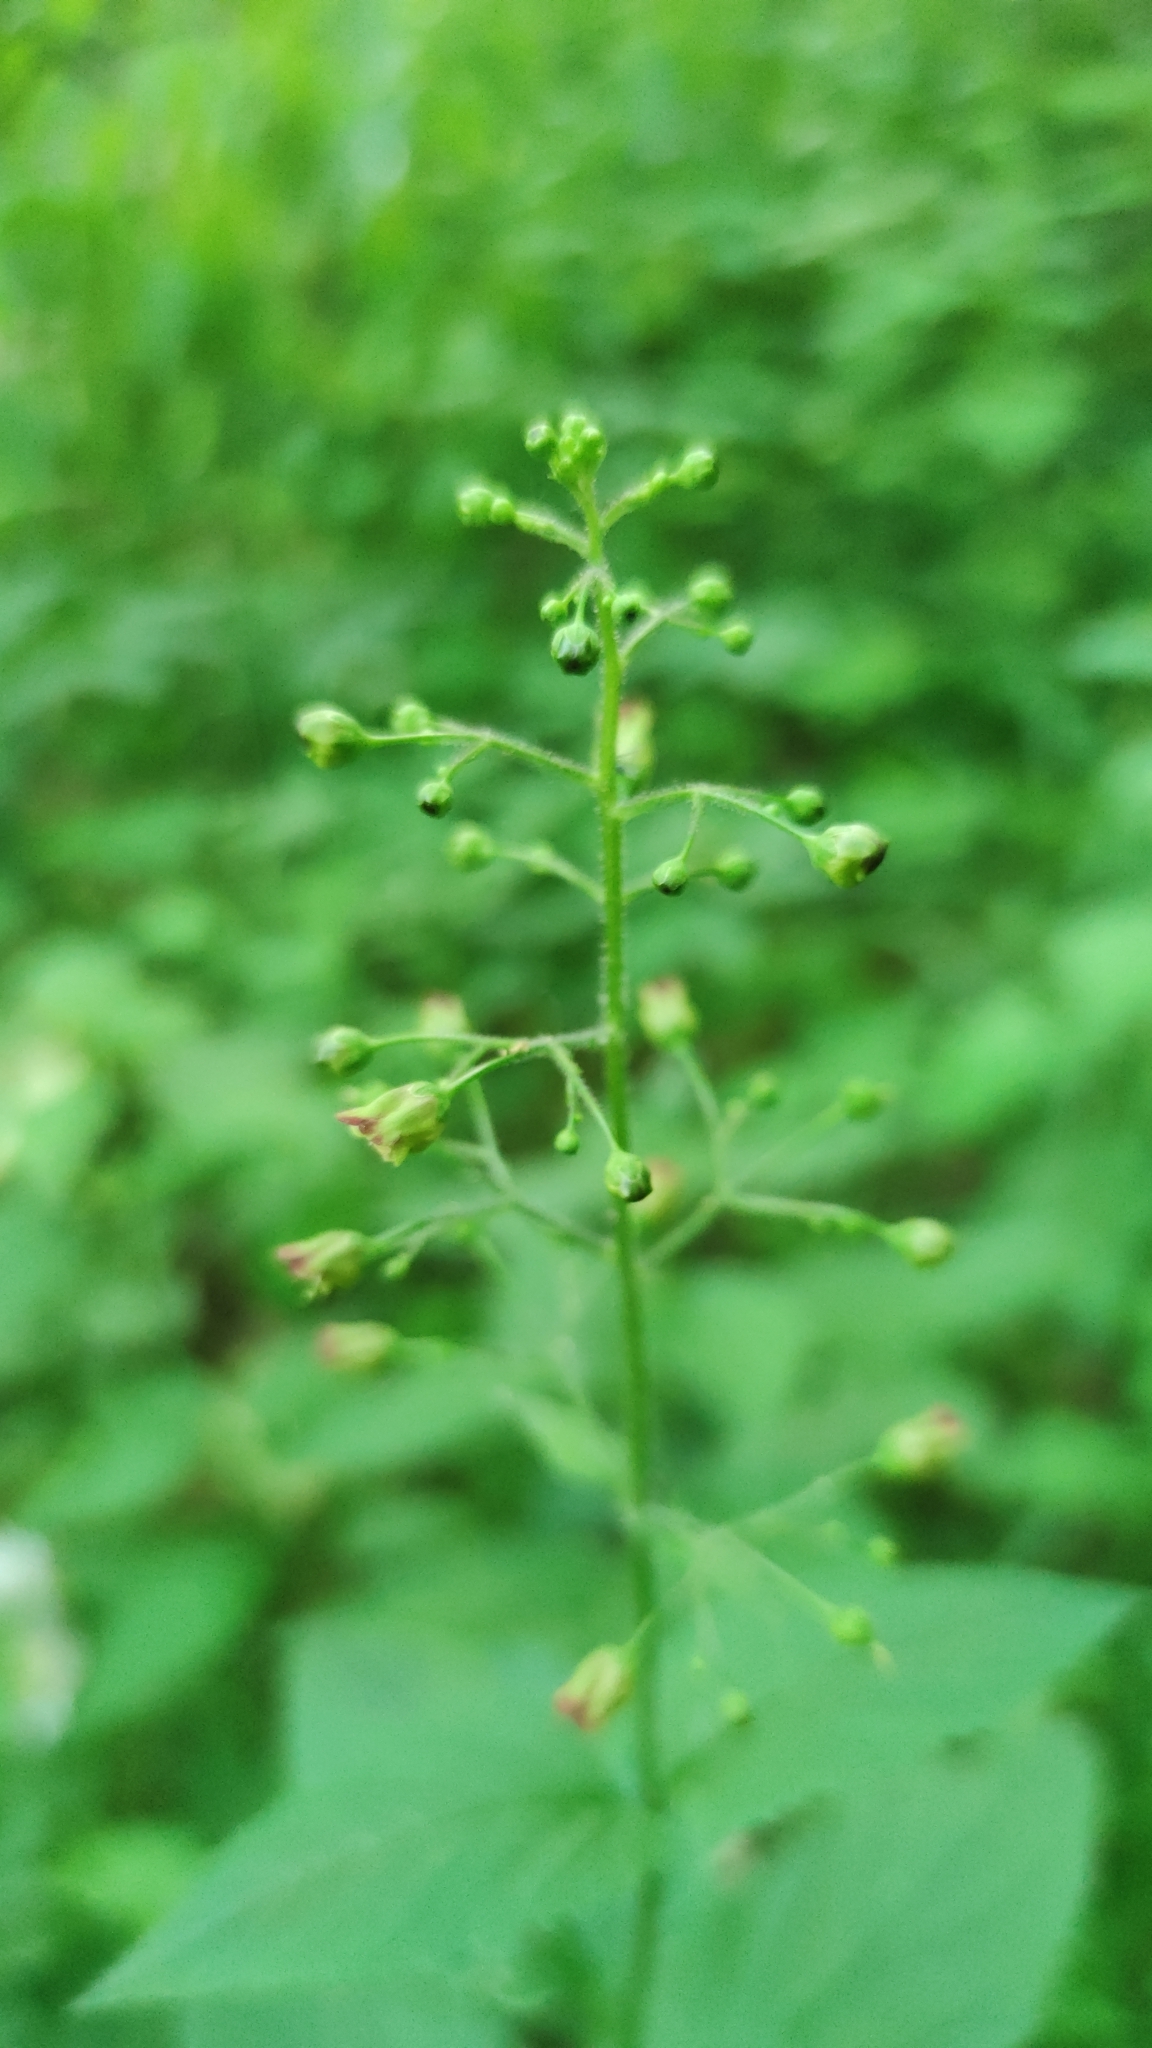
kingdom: Plantae
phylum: Tracheophyta
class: Magnoliopsida
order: Lamiales
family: Scrophulariaceae
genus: Scrophularia
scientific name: Scrophularia nodosa
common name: Common figwort
